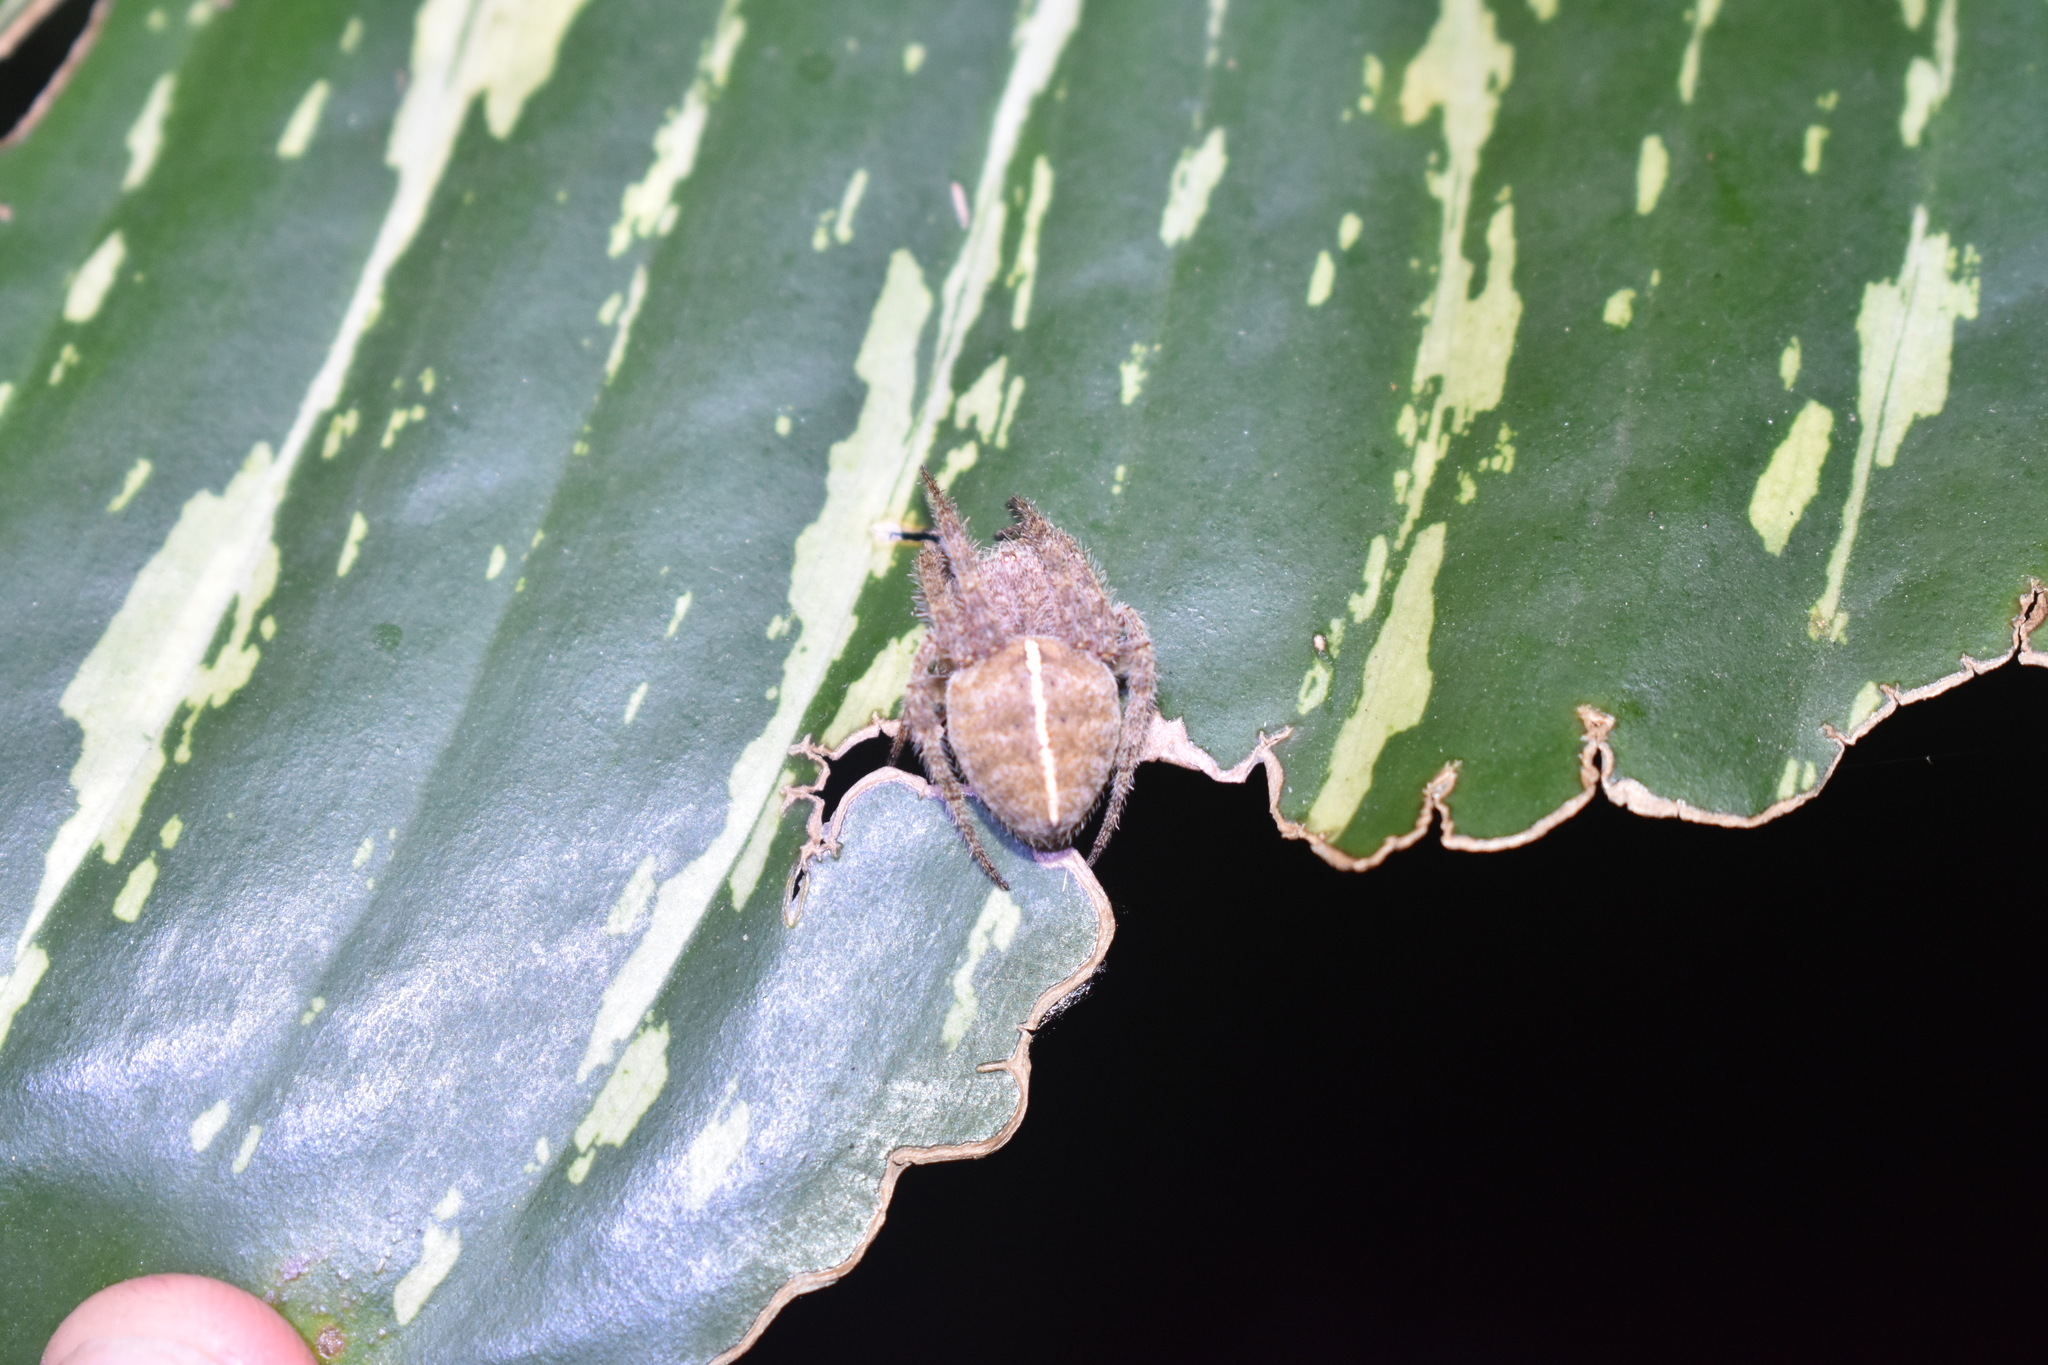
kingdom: Animalia
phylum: Arthropoda
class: Arachnida
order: Araneae
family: Araneidae
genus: Eriophora
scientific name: Eriophora edax
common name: Orb weavers
